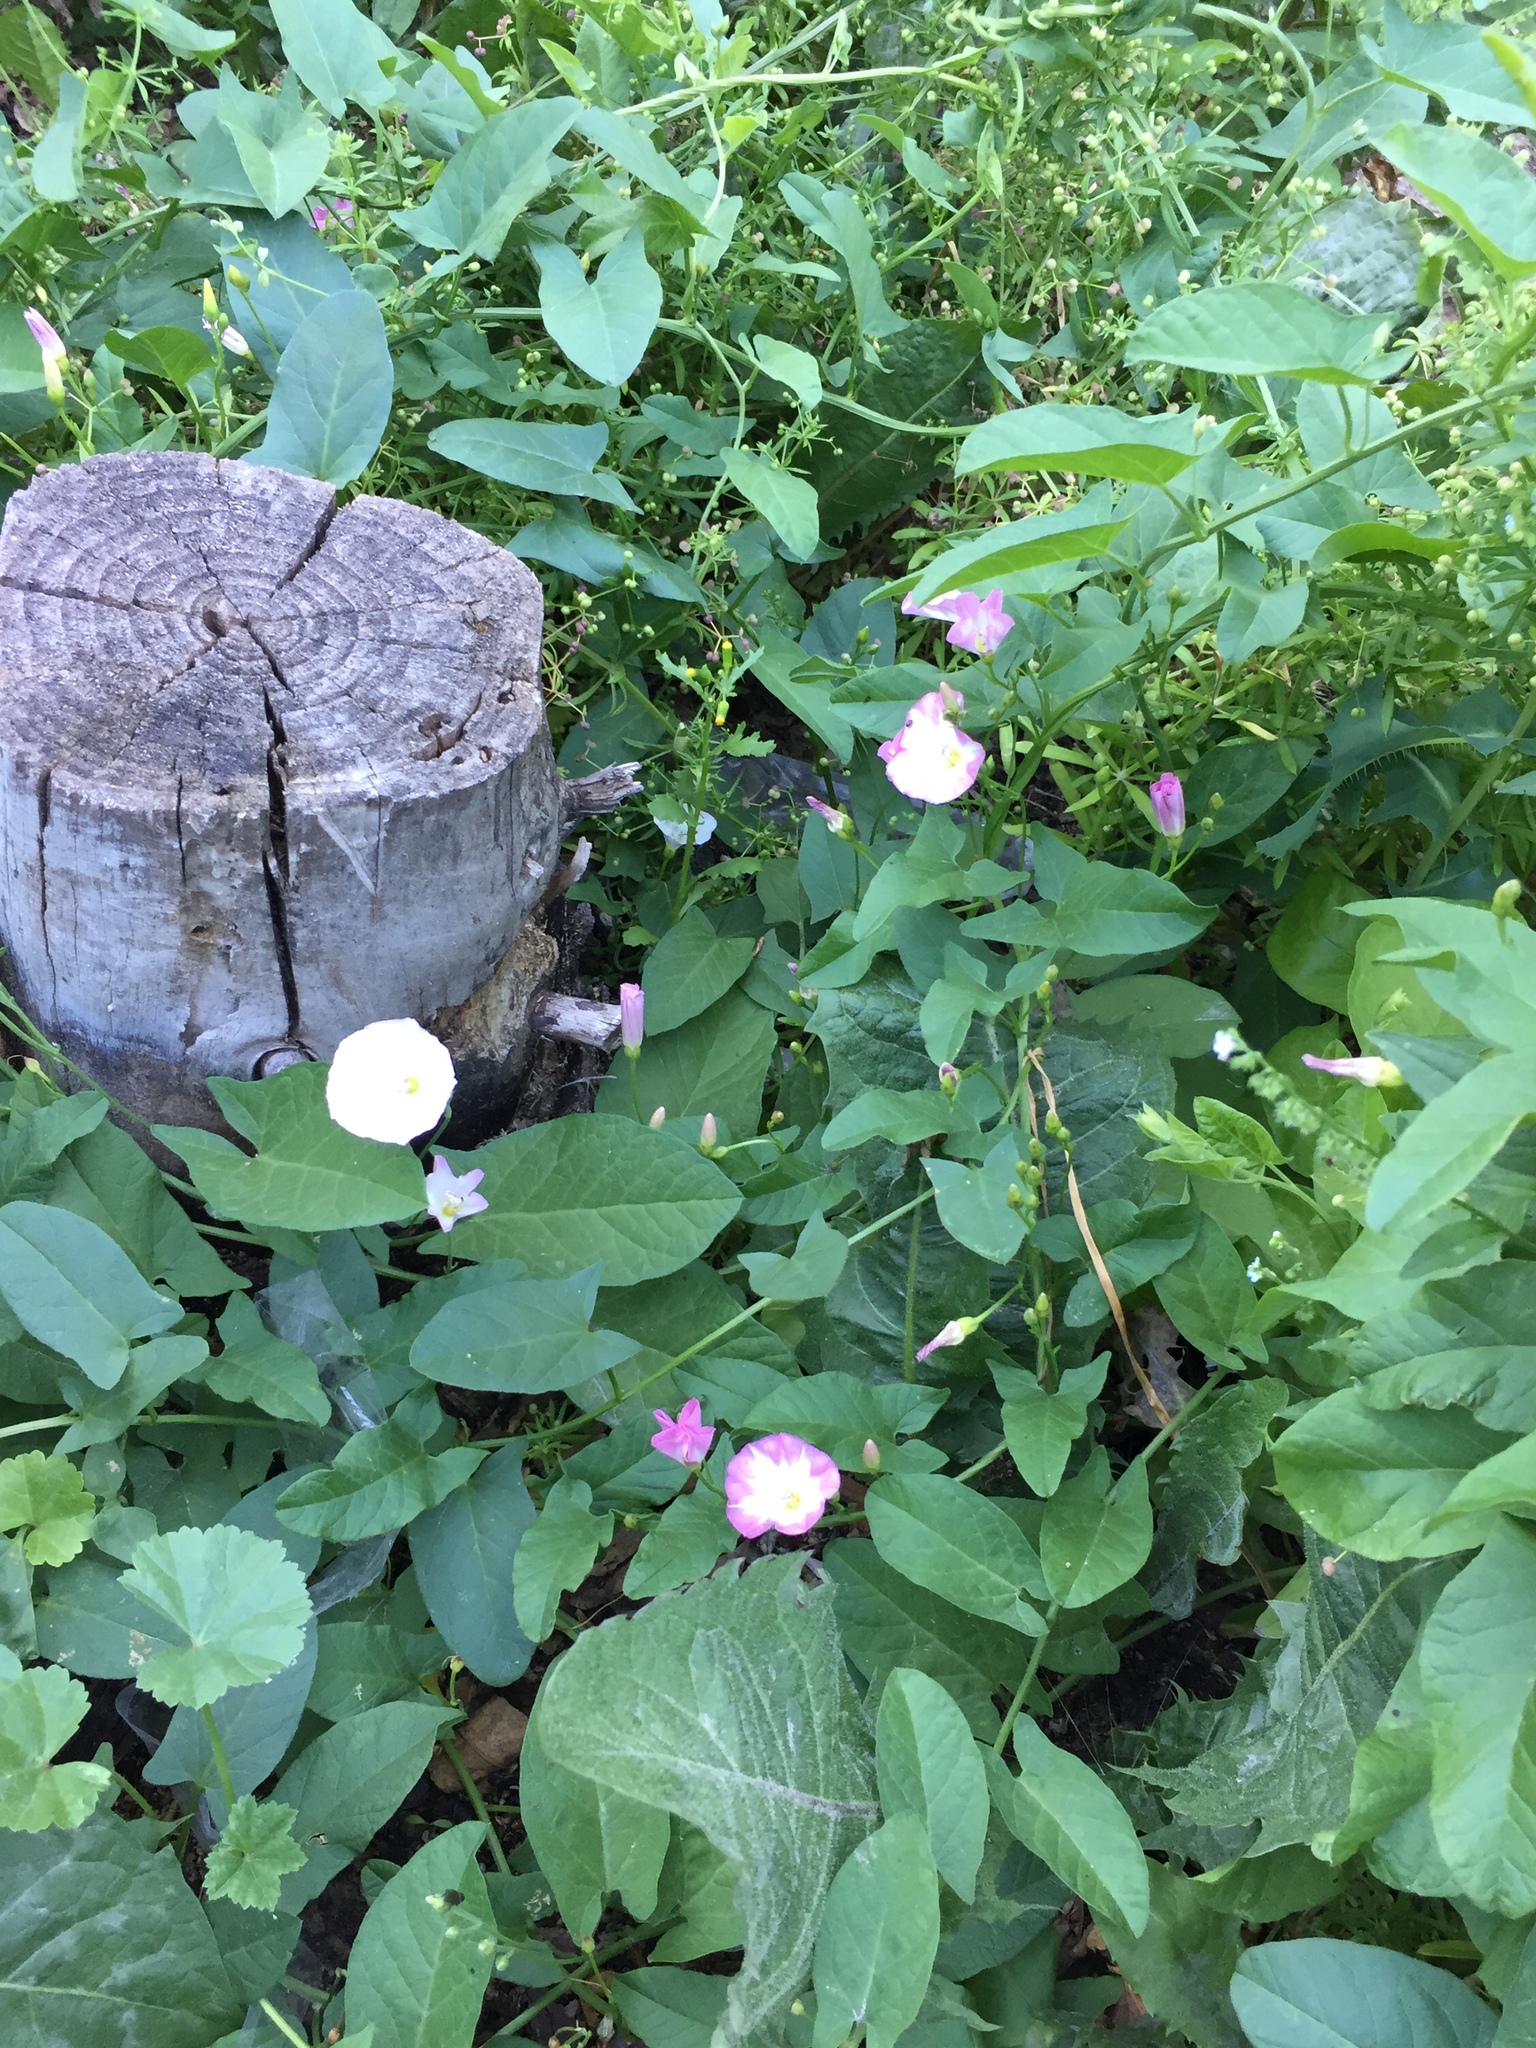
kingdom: Plantae
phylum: Tracheophyta
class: Magnoliopsida
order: Solanales
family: Convolvulaceae
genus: Convolvulus
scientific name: Convolvulus arvensis
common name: Field bindweed
